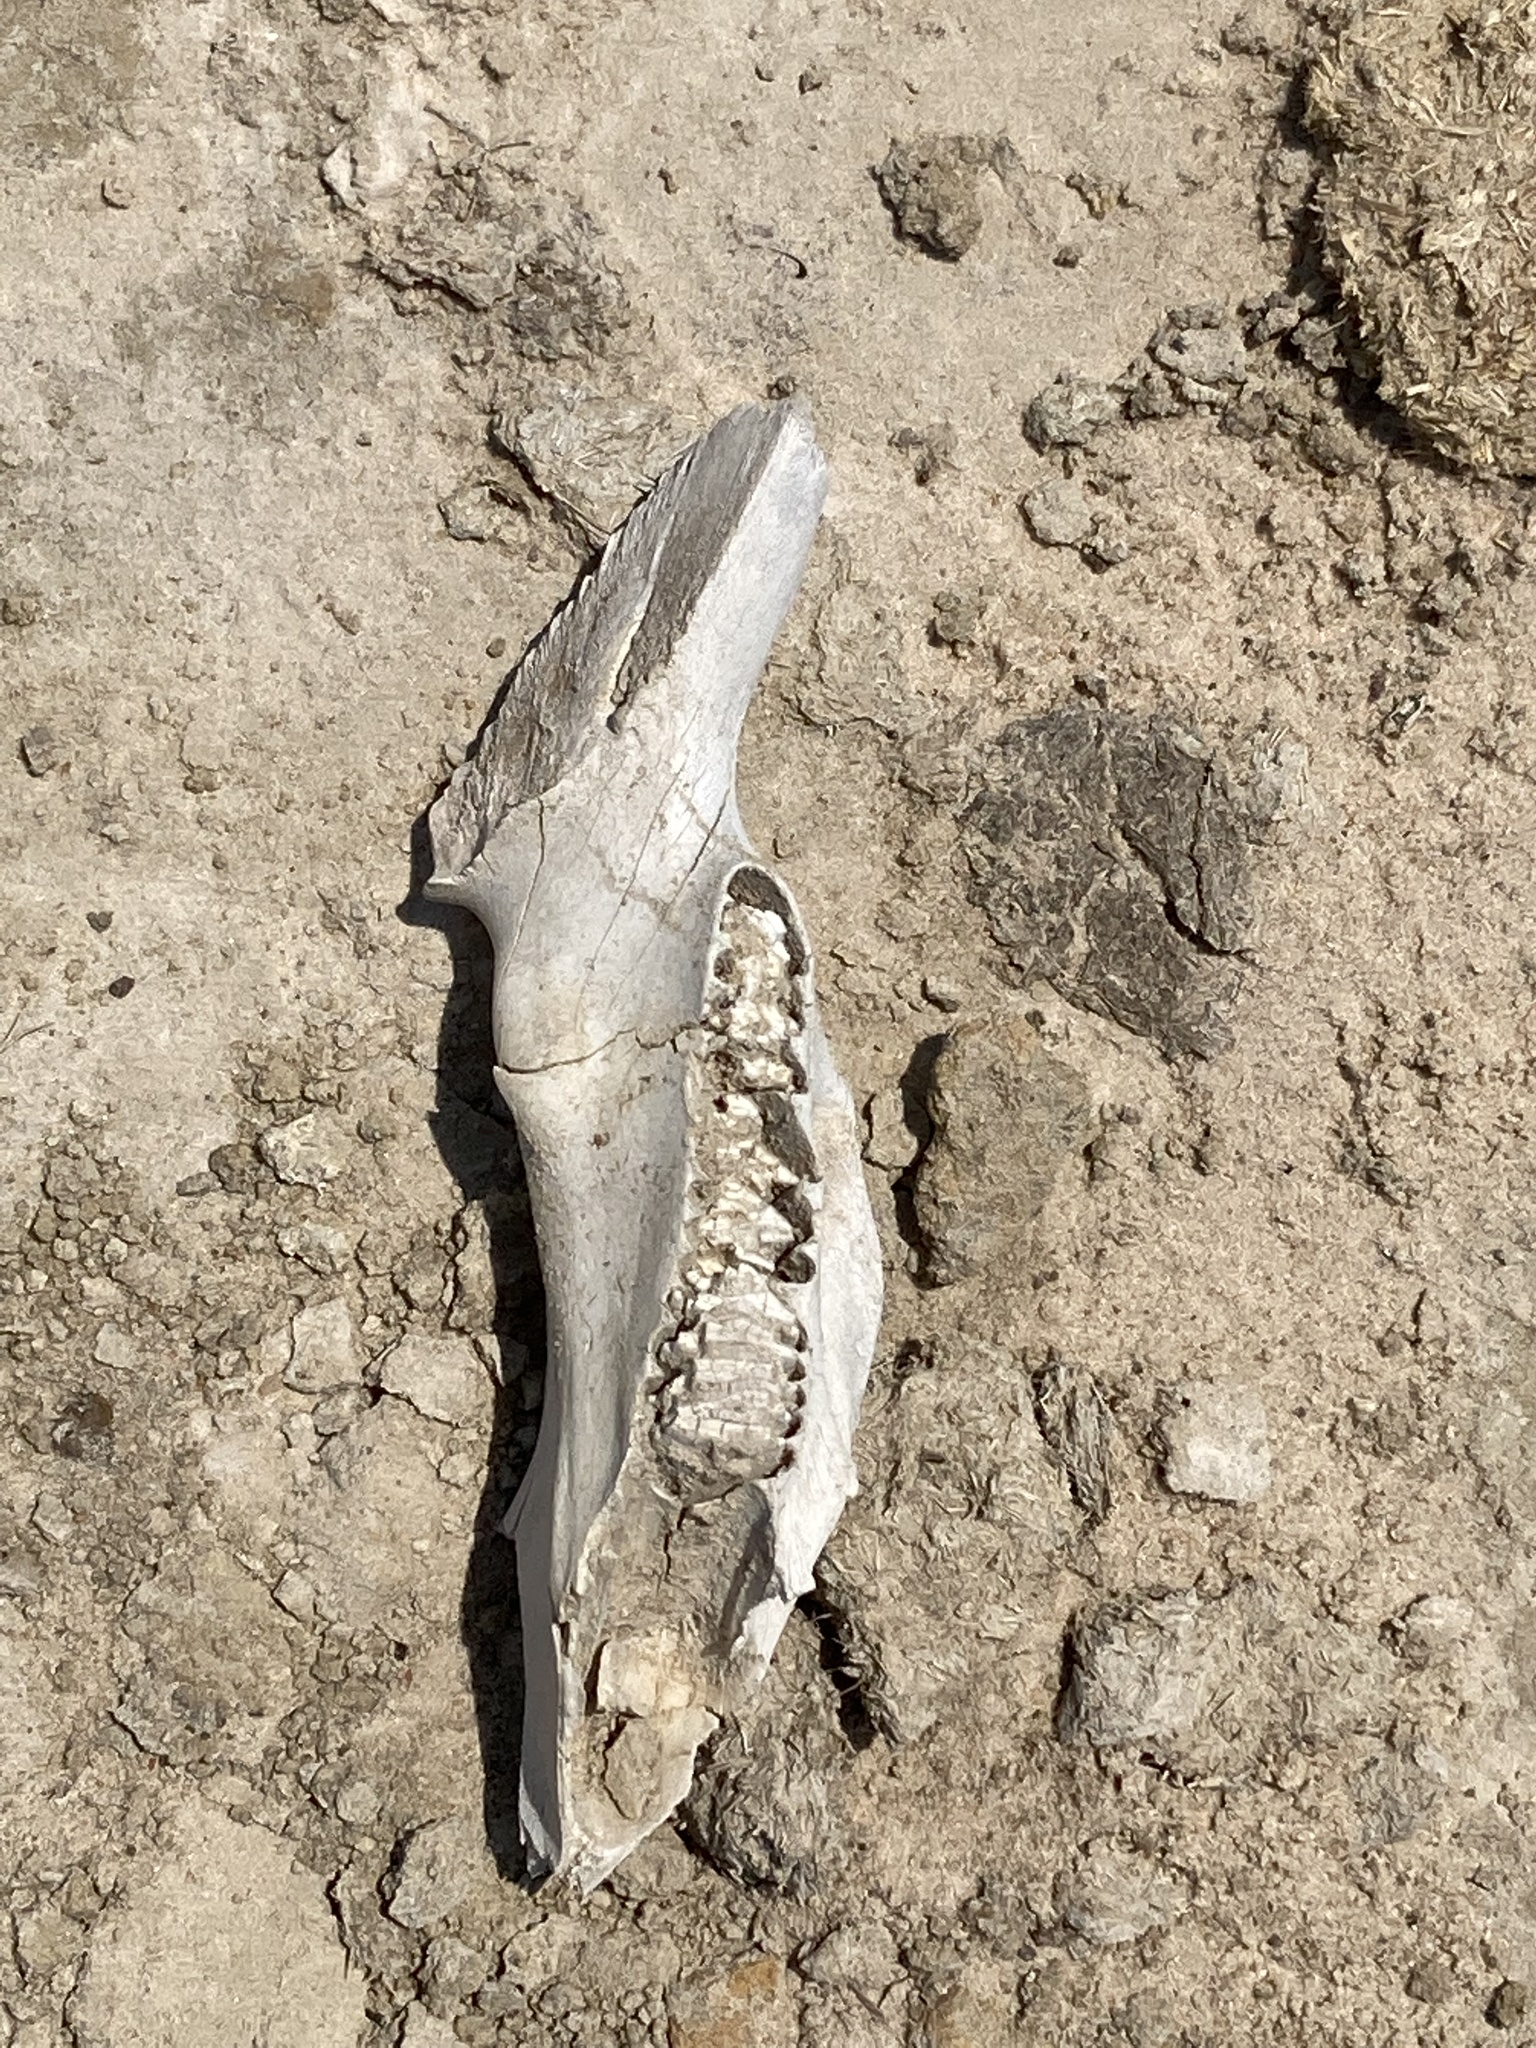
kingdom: Animalia
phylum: Chordata
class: Mammalia
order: Rodentia
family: Caviidae
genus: Hydrochoerus
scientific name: Hydrochoerus hydrochaeris
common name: Capybara
